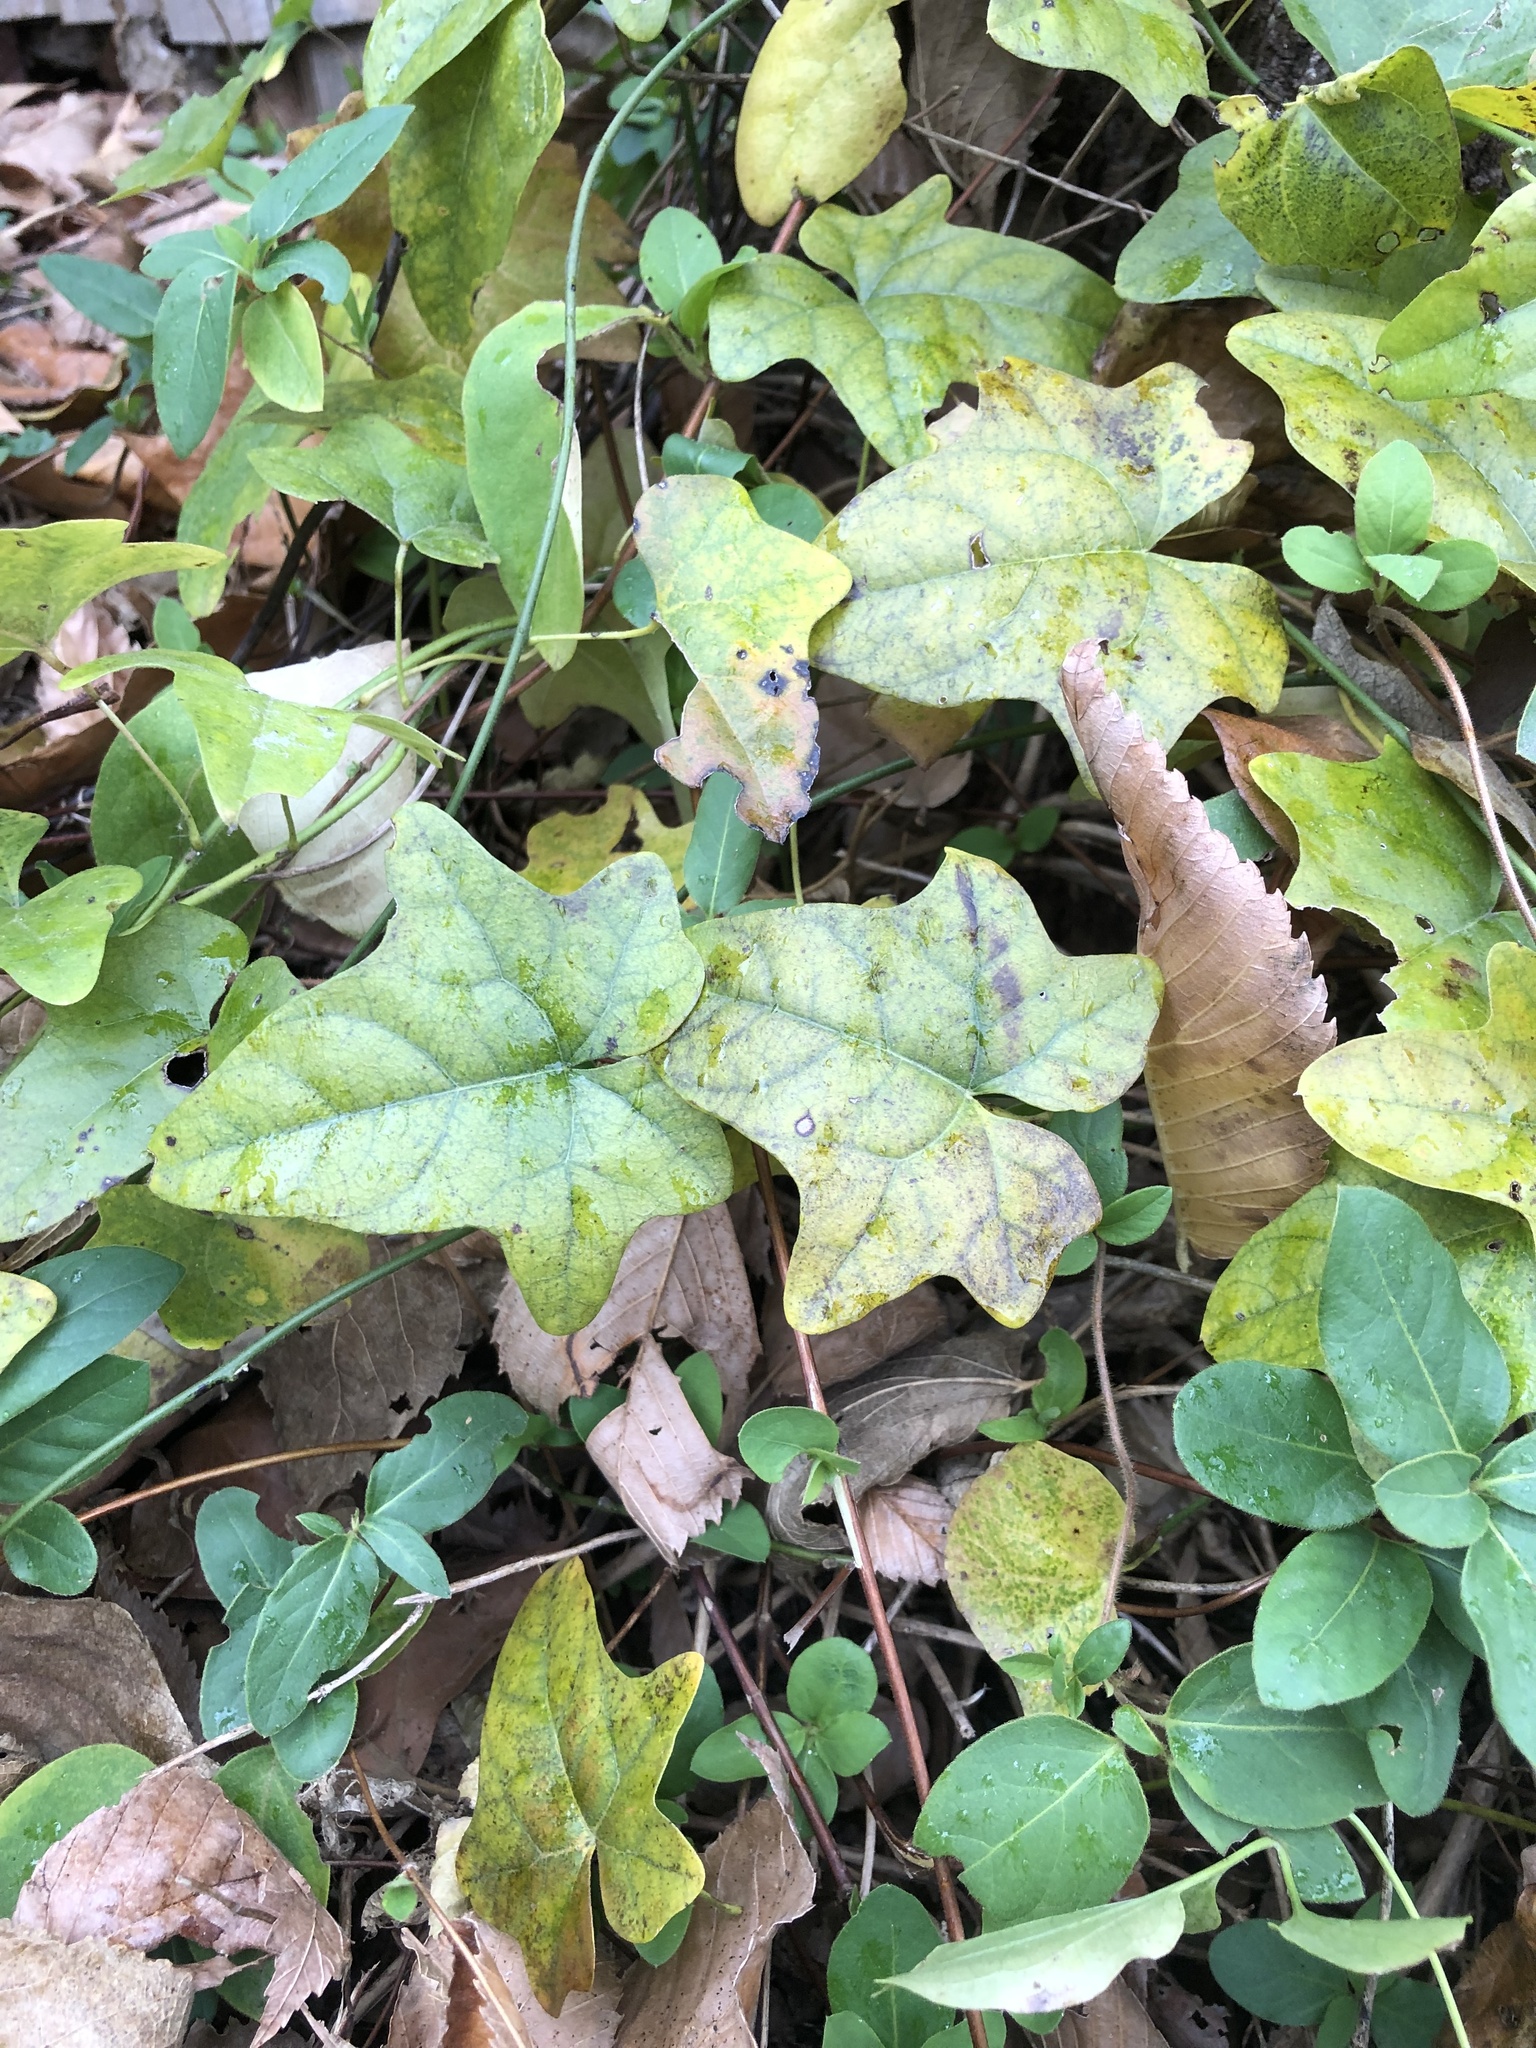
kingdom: Plantae
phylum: Tracheophyta
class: Magnoliopsida
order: Ranunculales
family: Menispermaceae
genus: Cocculus
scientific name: Cocculus carolinus
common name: Carolina moonseed
